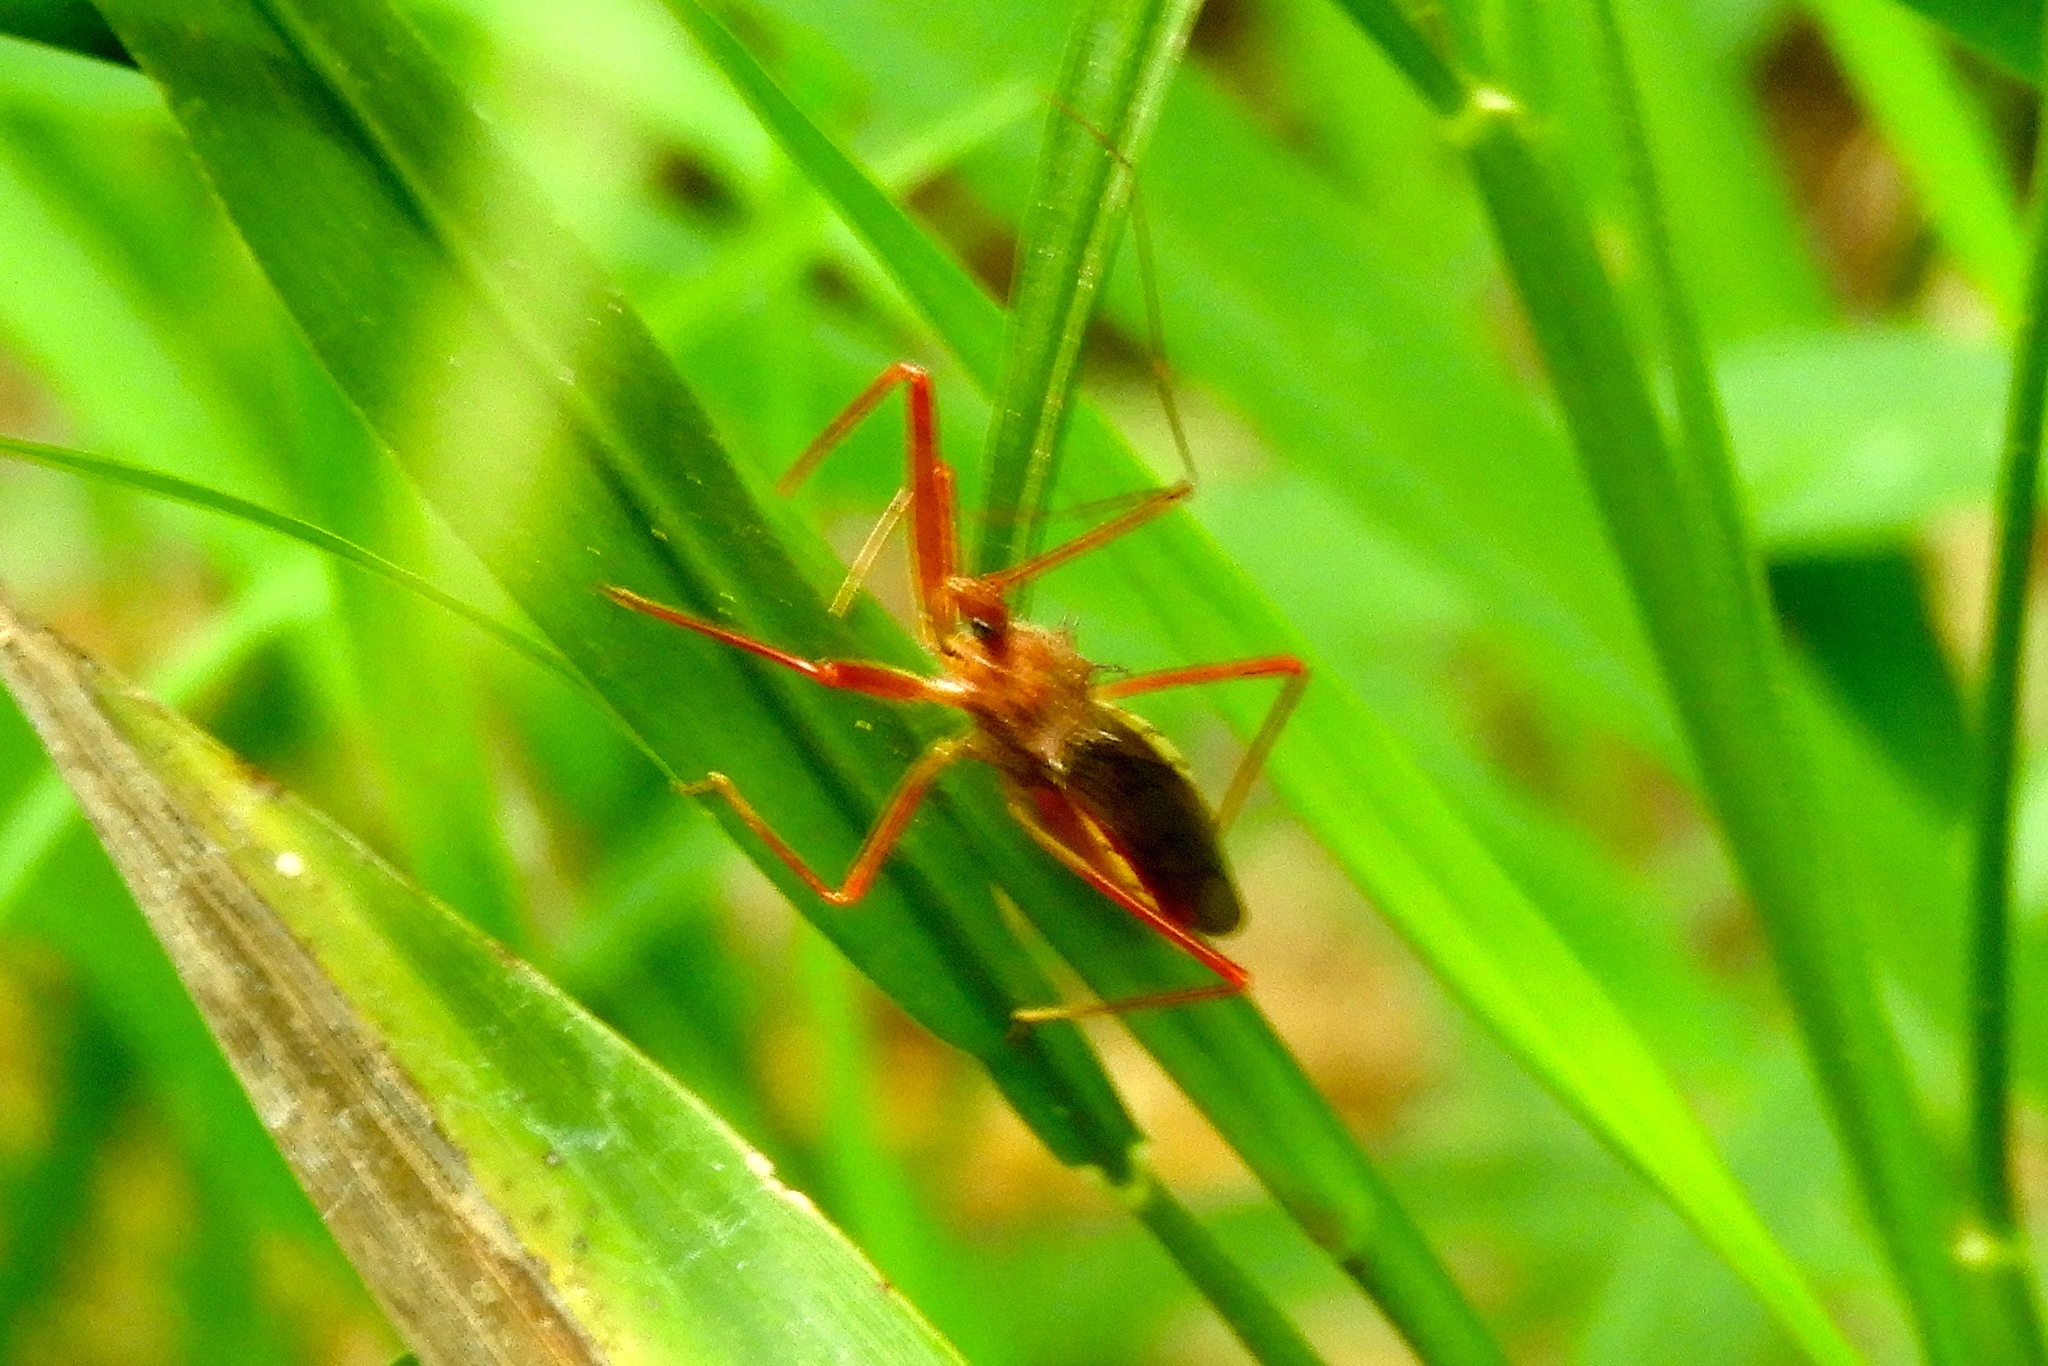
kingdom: Animalia
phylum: Arthropoda
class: Insecta
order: Hemiptera
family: Reduviidae
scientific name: Reduviidae
